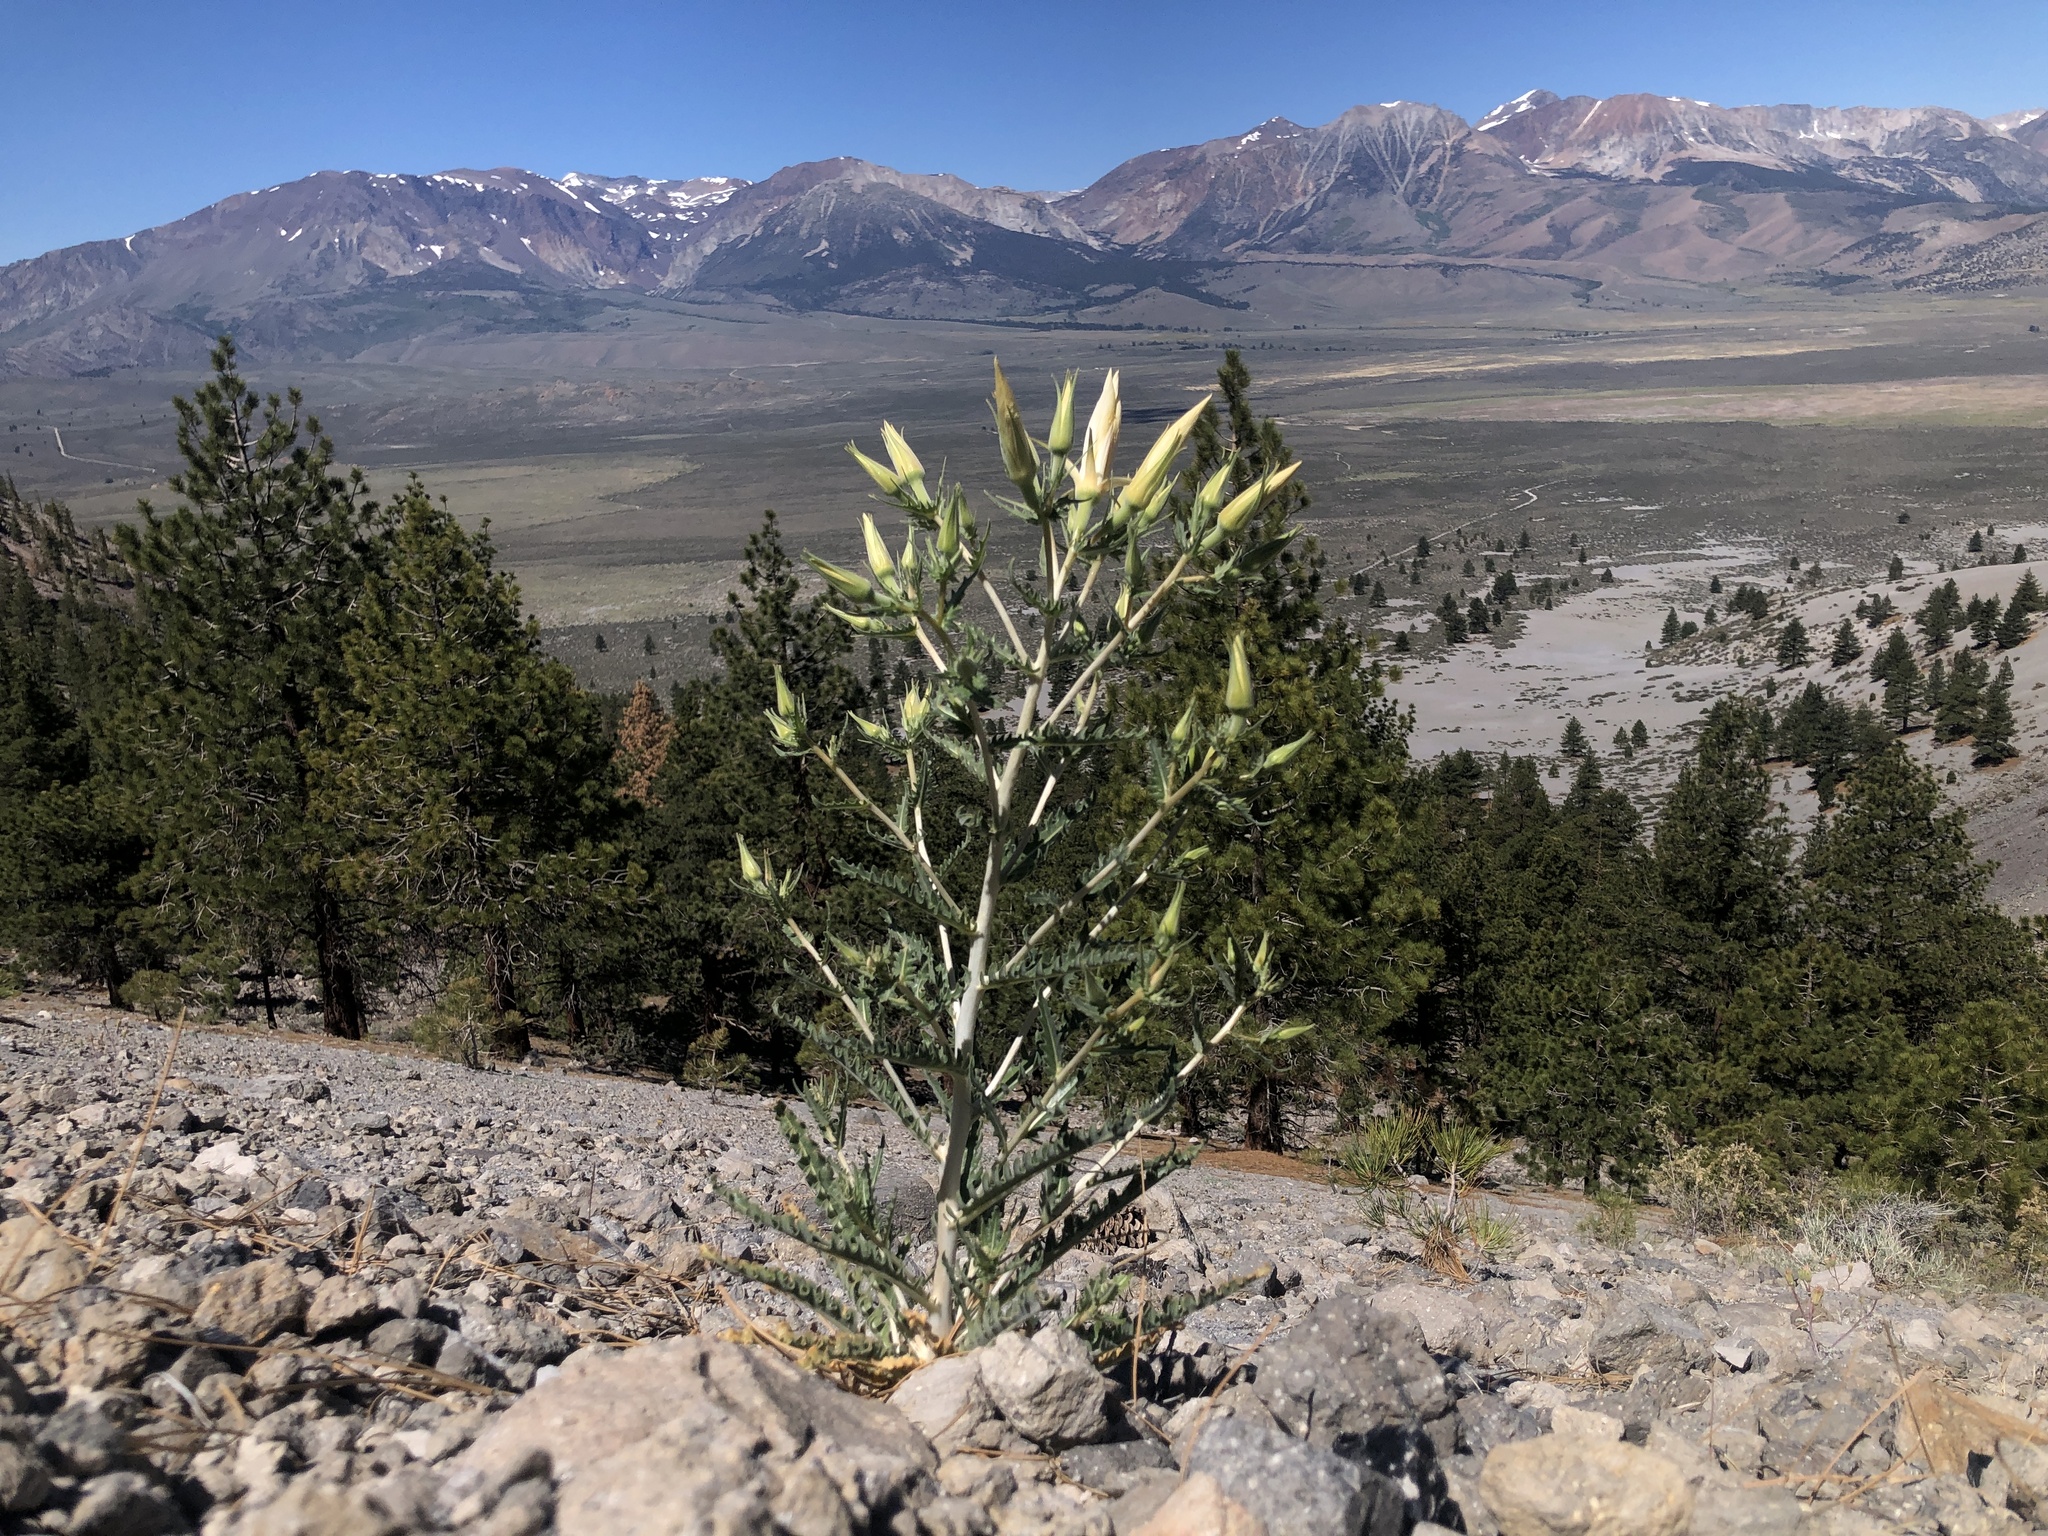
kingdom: Plantae
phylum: Tracheophyta
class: Magnoliopsida
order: Cornales
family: Loasaceae
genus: Mentzelia
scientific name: Mentzelia laevicaulis
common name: Smooth-stem blazingstar
